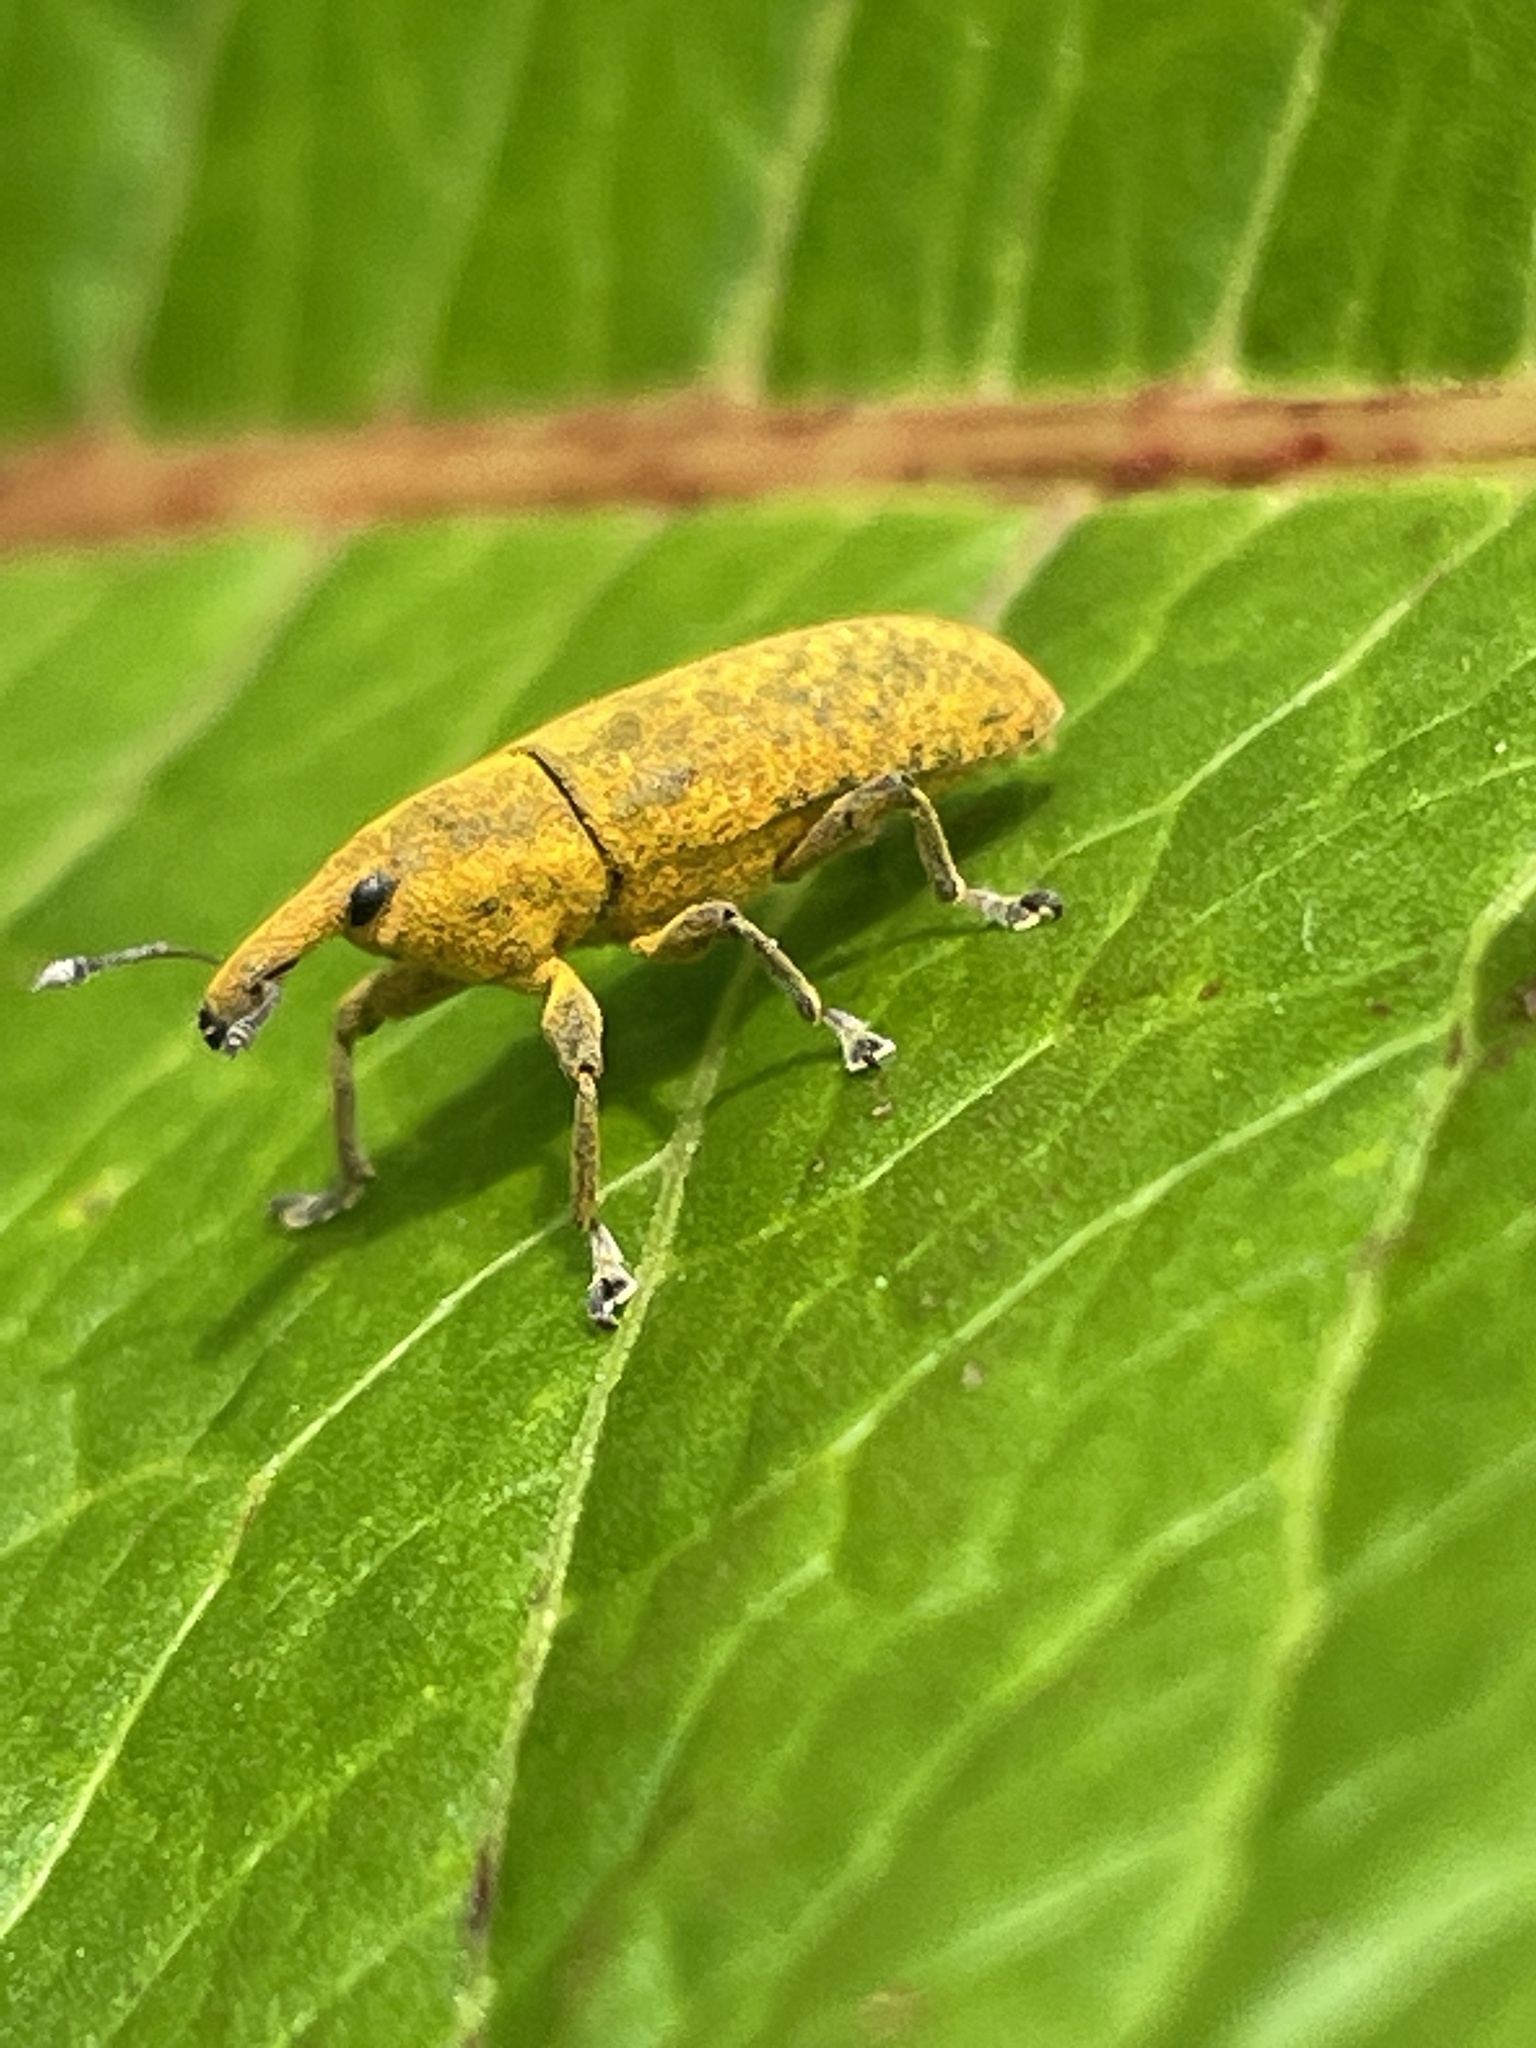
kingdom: Animalia
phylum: Arthropoda
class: Insecta
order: Coleoptera
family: Curculionidae
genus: Lixus
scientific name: Lixus bardanae
